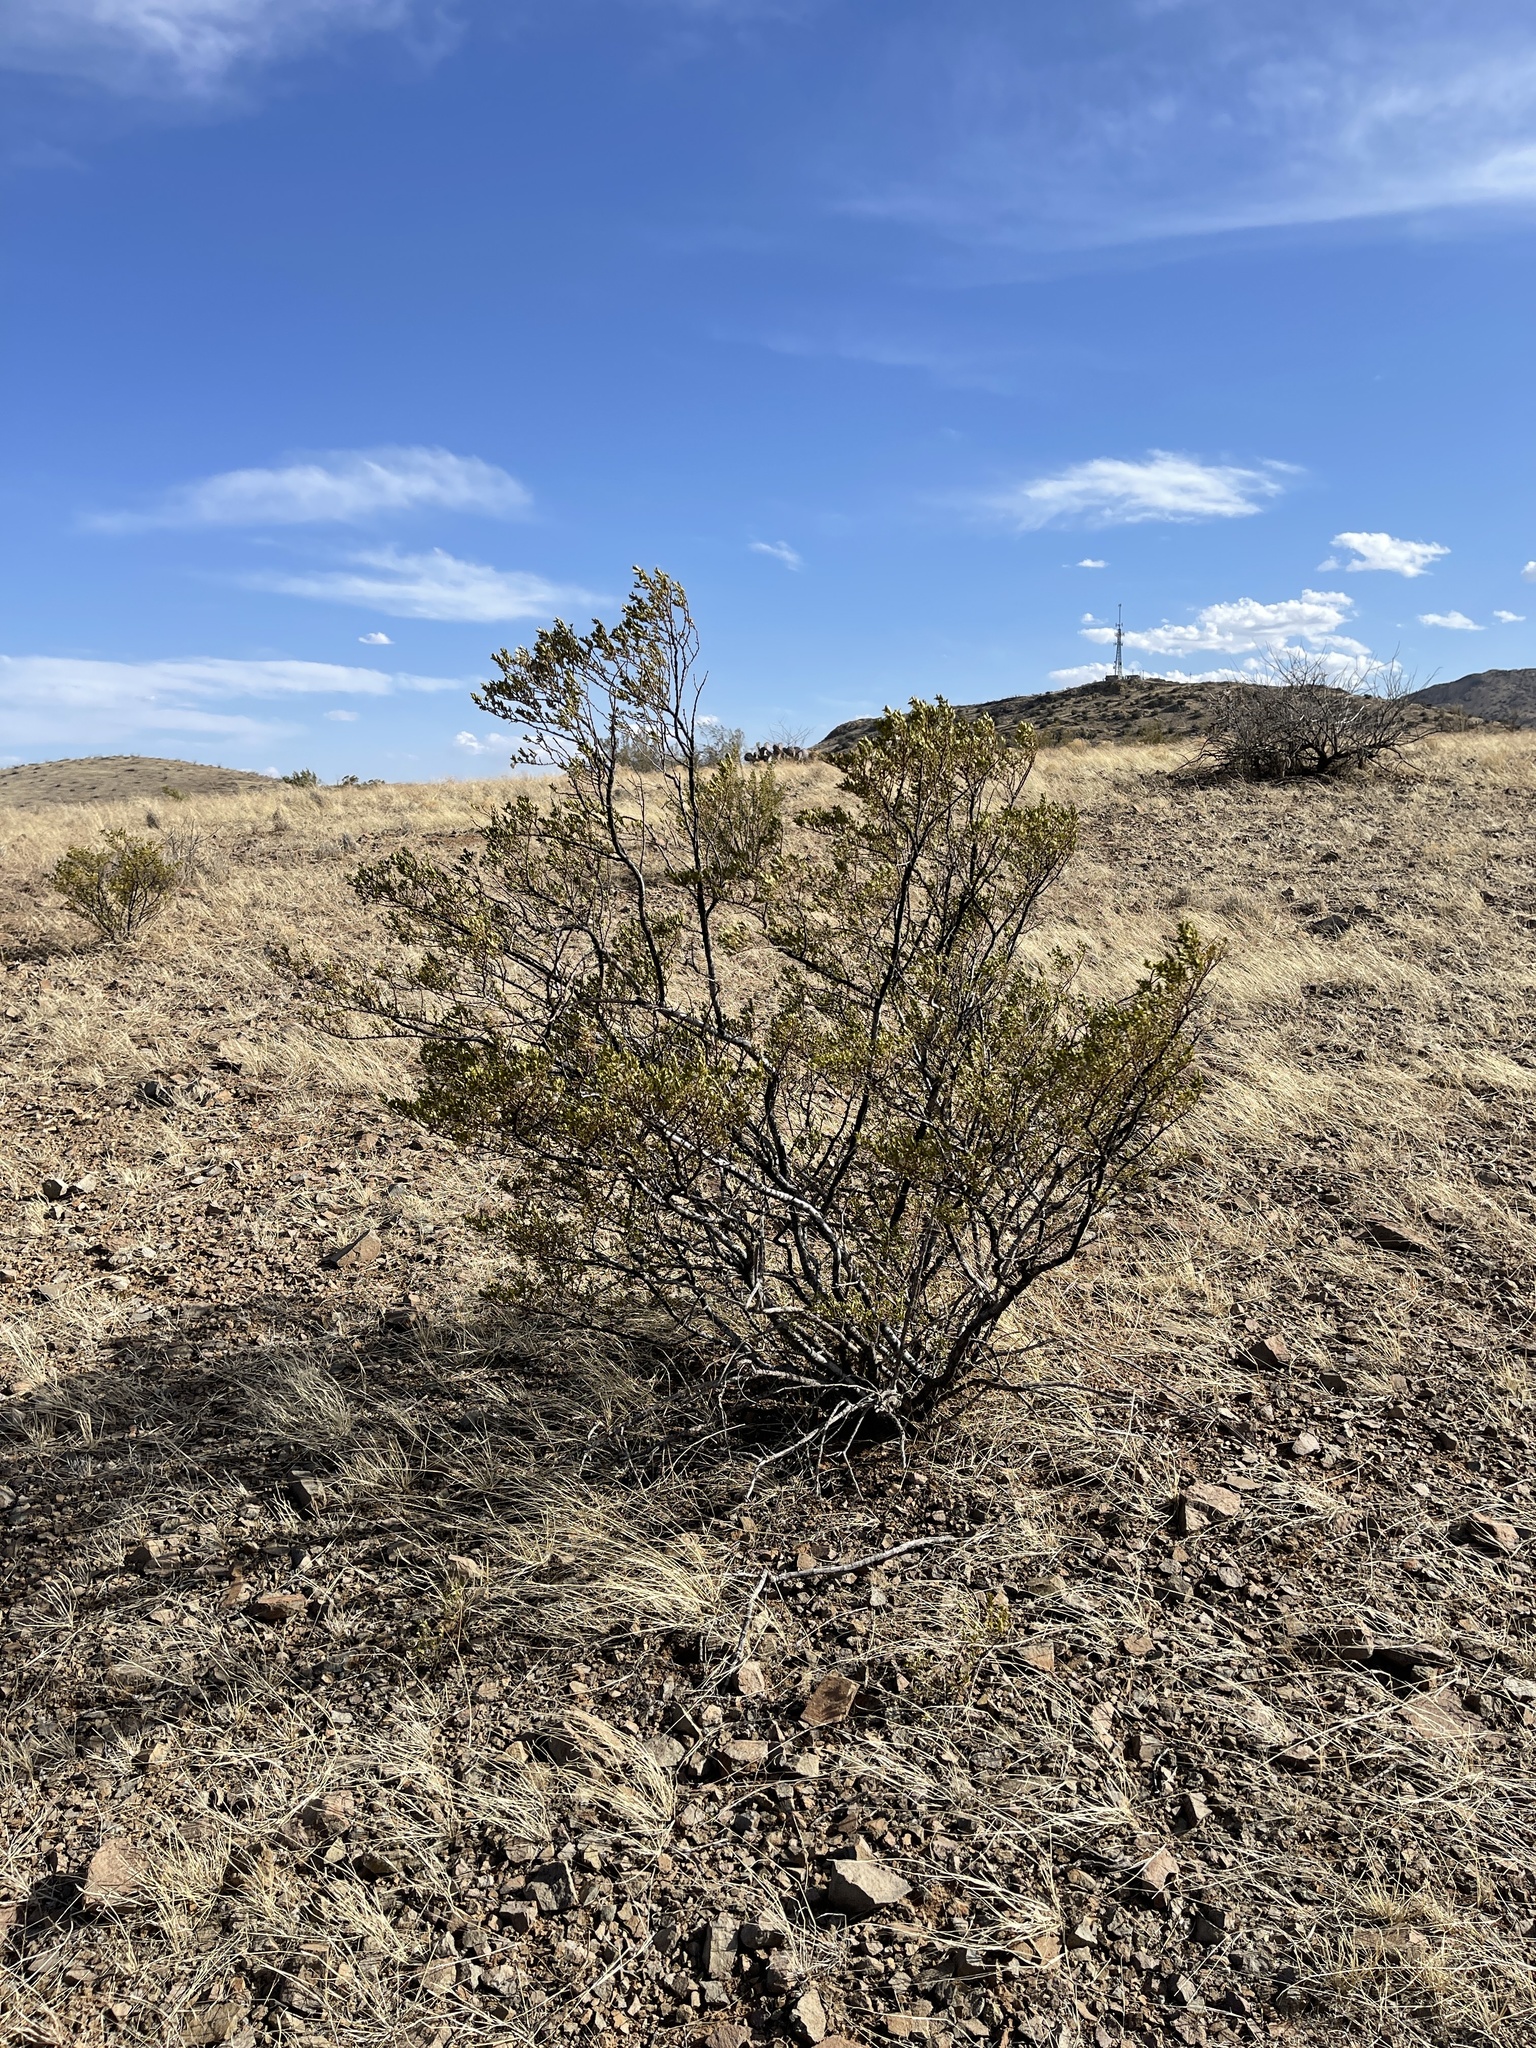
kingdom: Plantae
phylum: Tracheophyta
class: Magnoliopsida
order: Zygophyllales
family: Zygophyllaceae
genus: Larrea
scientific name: Larrea tridentata
